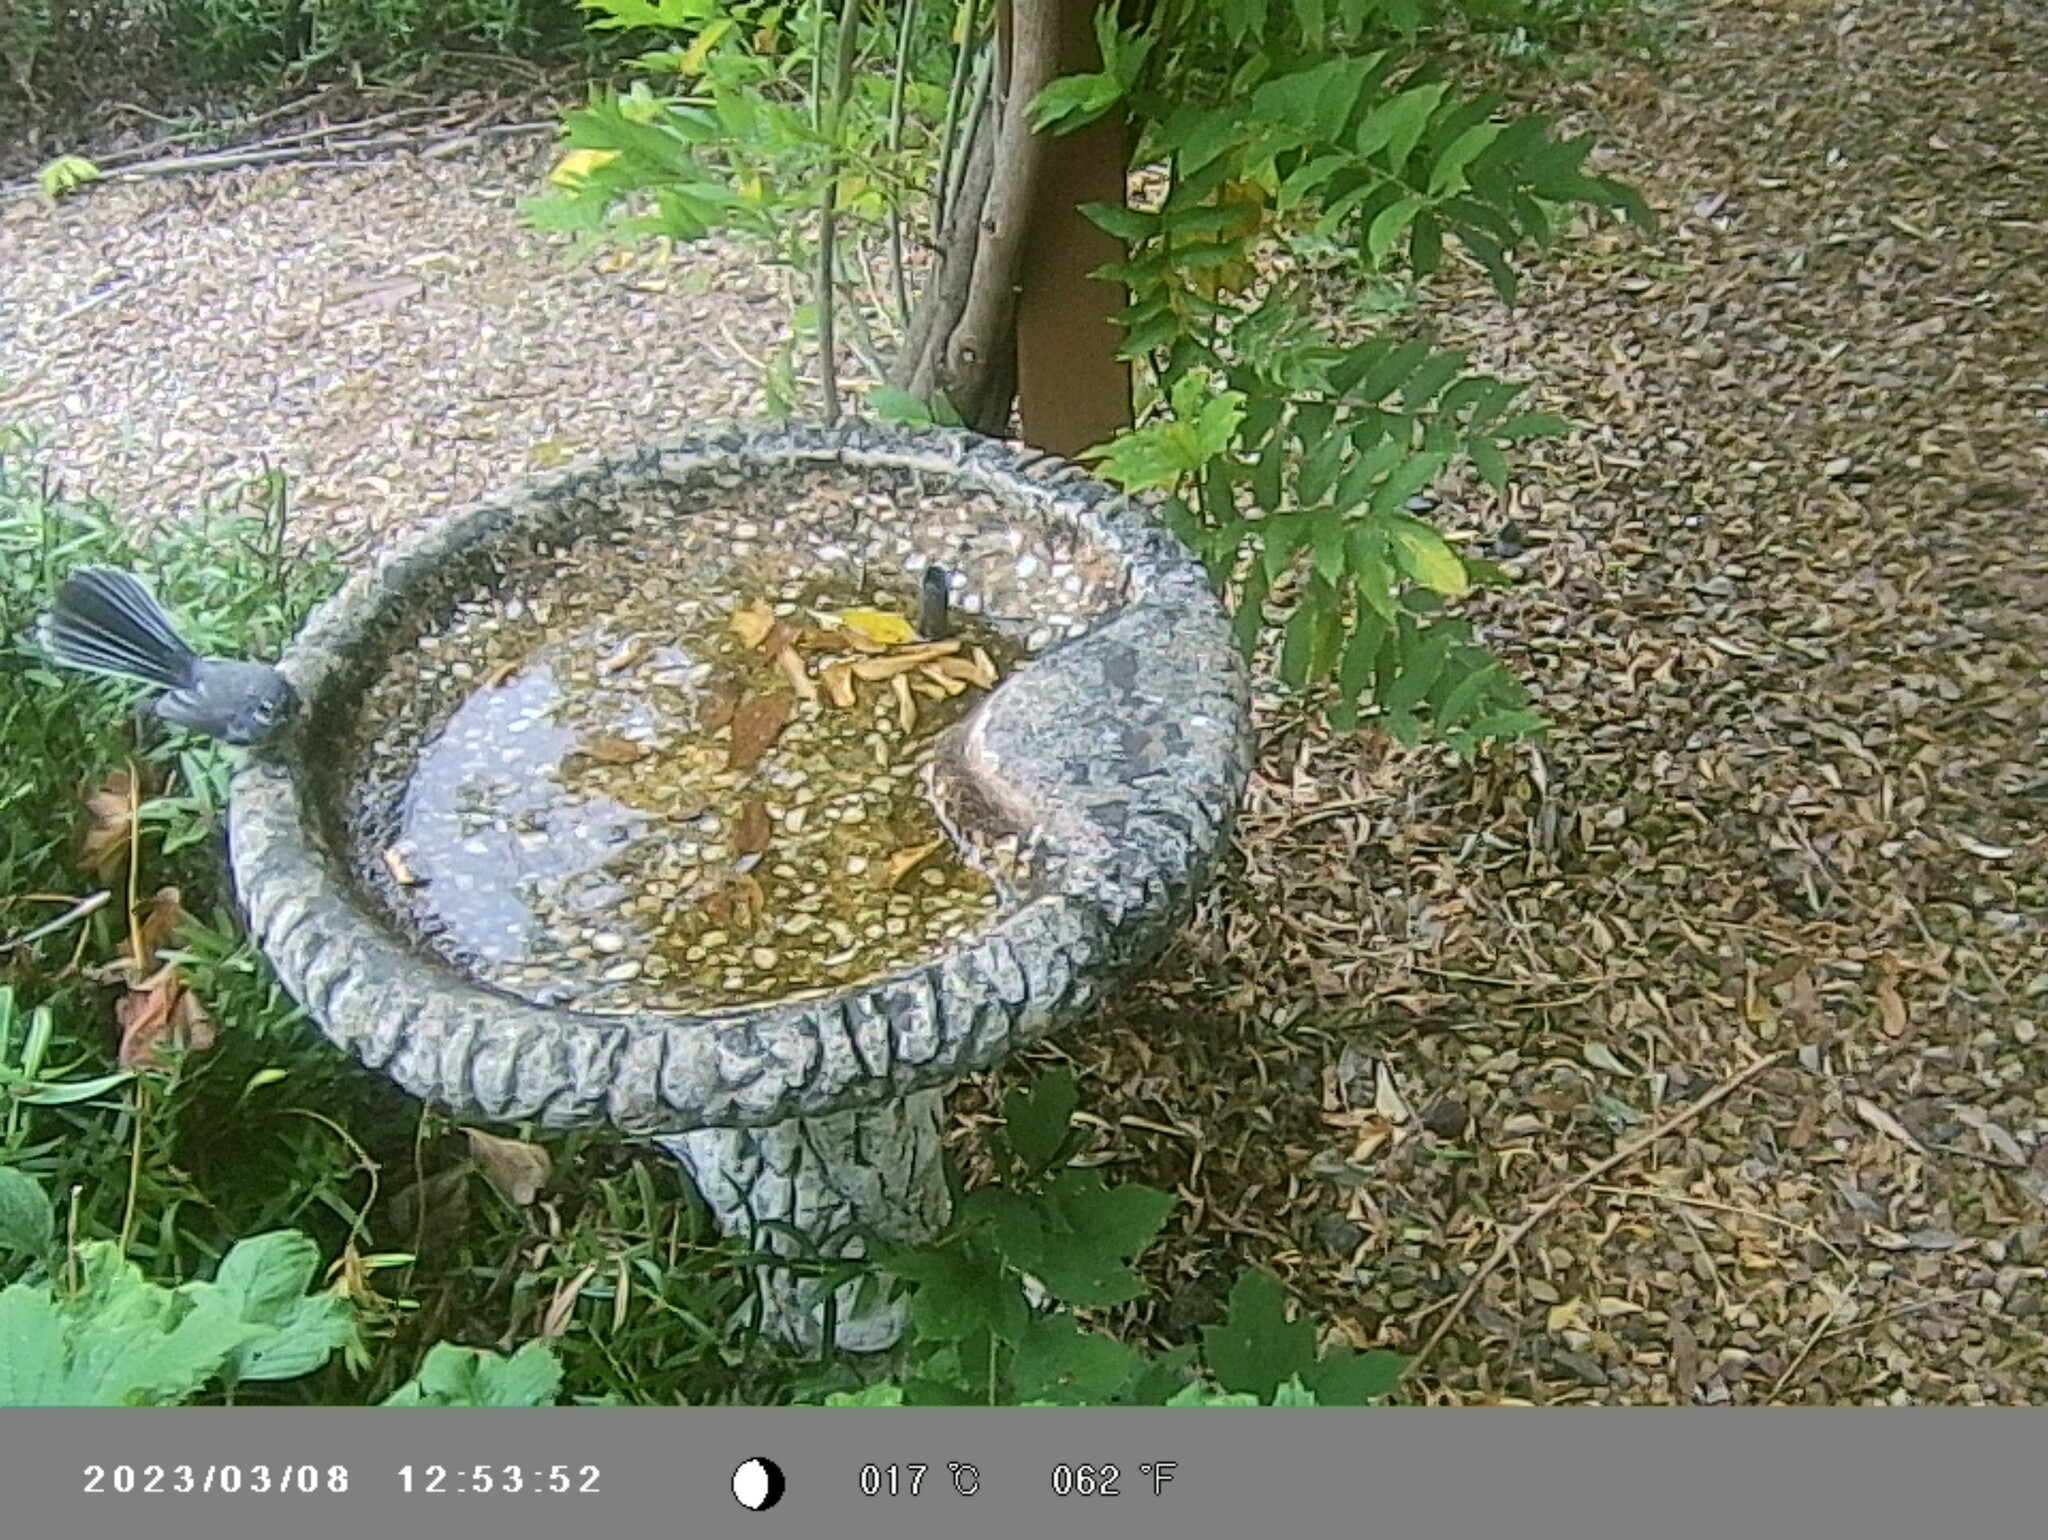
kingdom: Animalia
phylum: Chordata
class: Aves
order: Passeriformes
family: Rhipiduridae
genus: Rhipidura
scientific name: Rhipidura albiscapa
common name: Grey fantail
